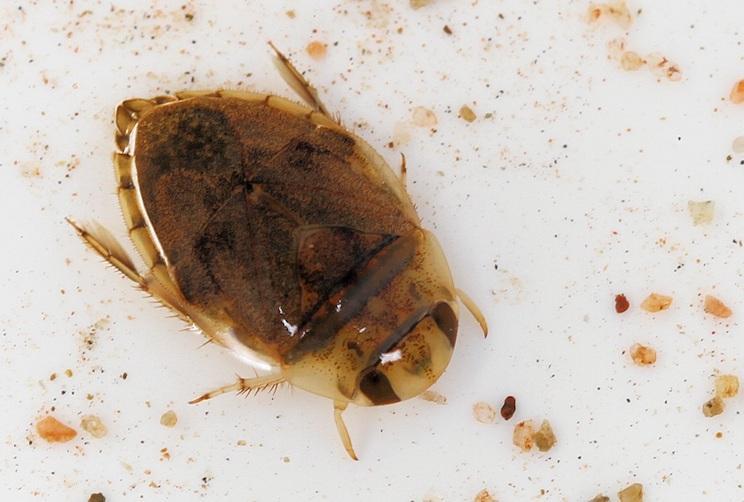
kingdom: Animalia
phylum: Arthropoda
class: Insecta
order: Hemiptera
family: Naucoridae
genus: Ctenipocoris
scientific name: Ctenipocoris africanus
